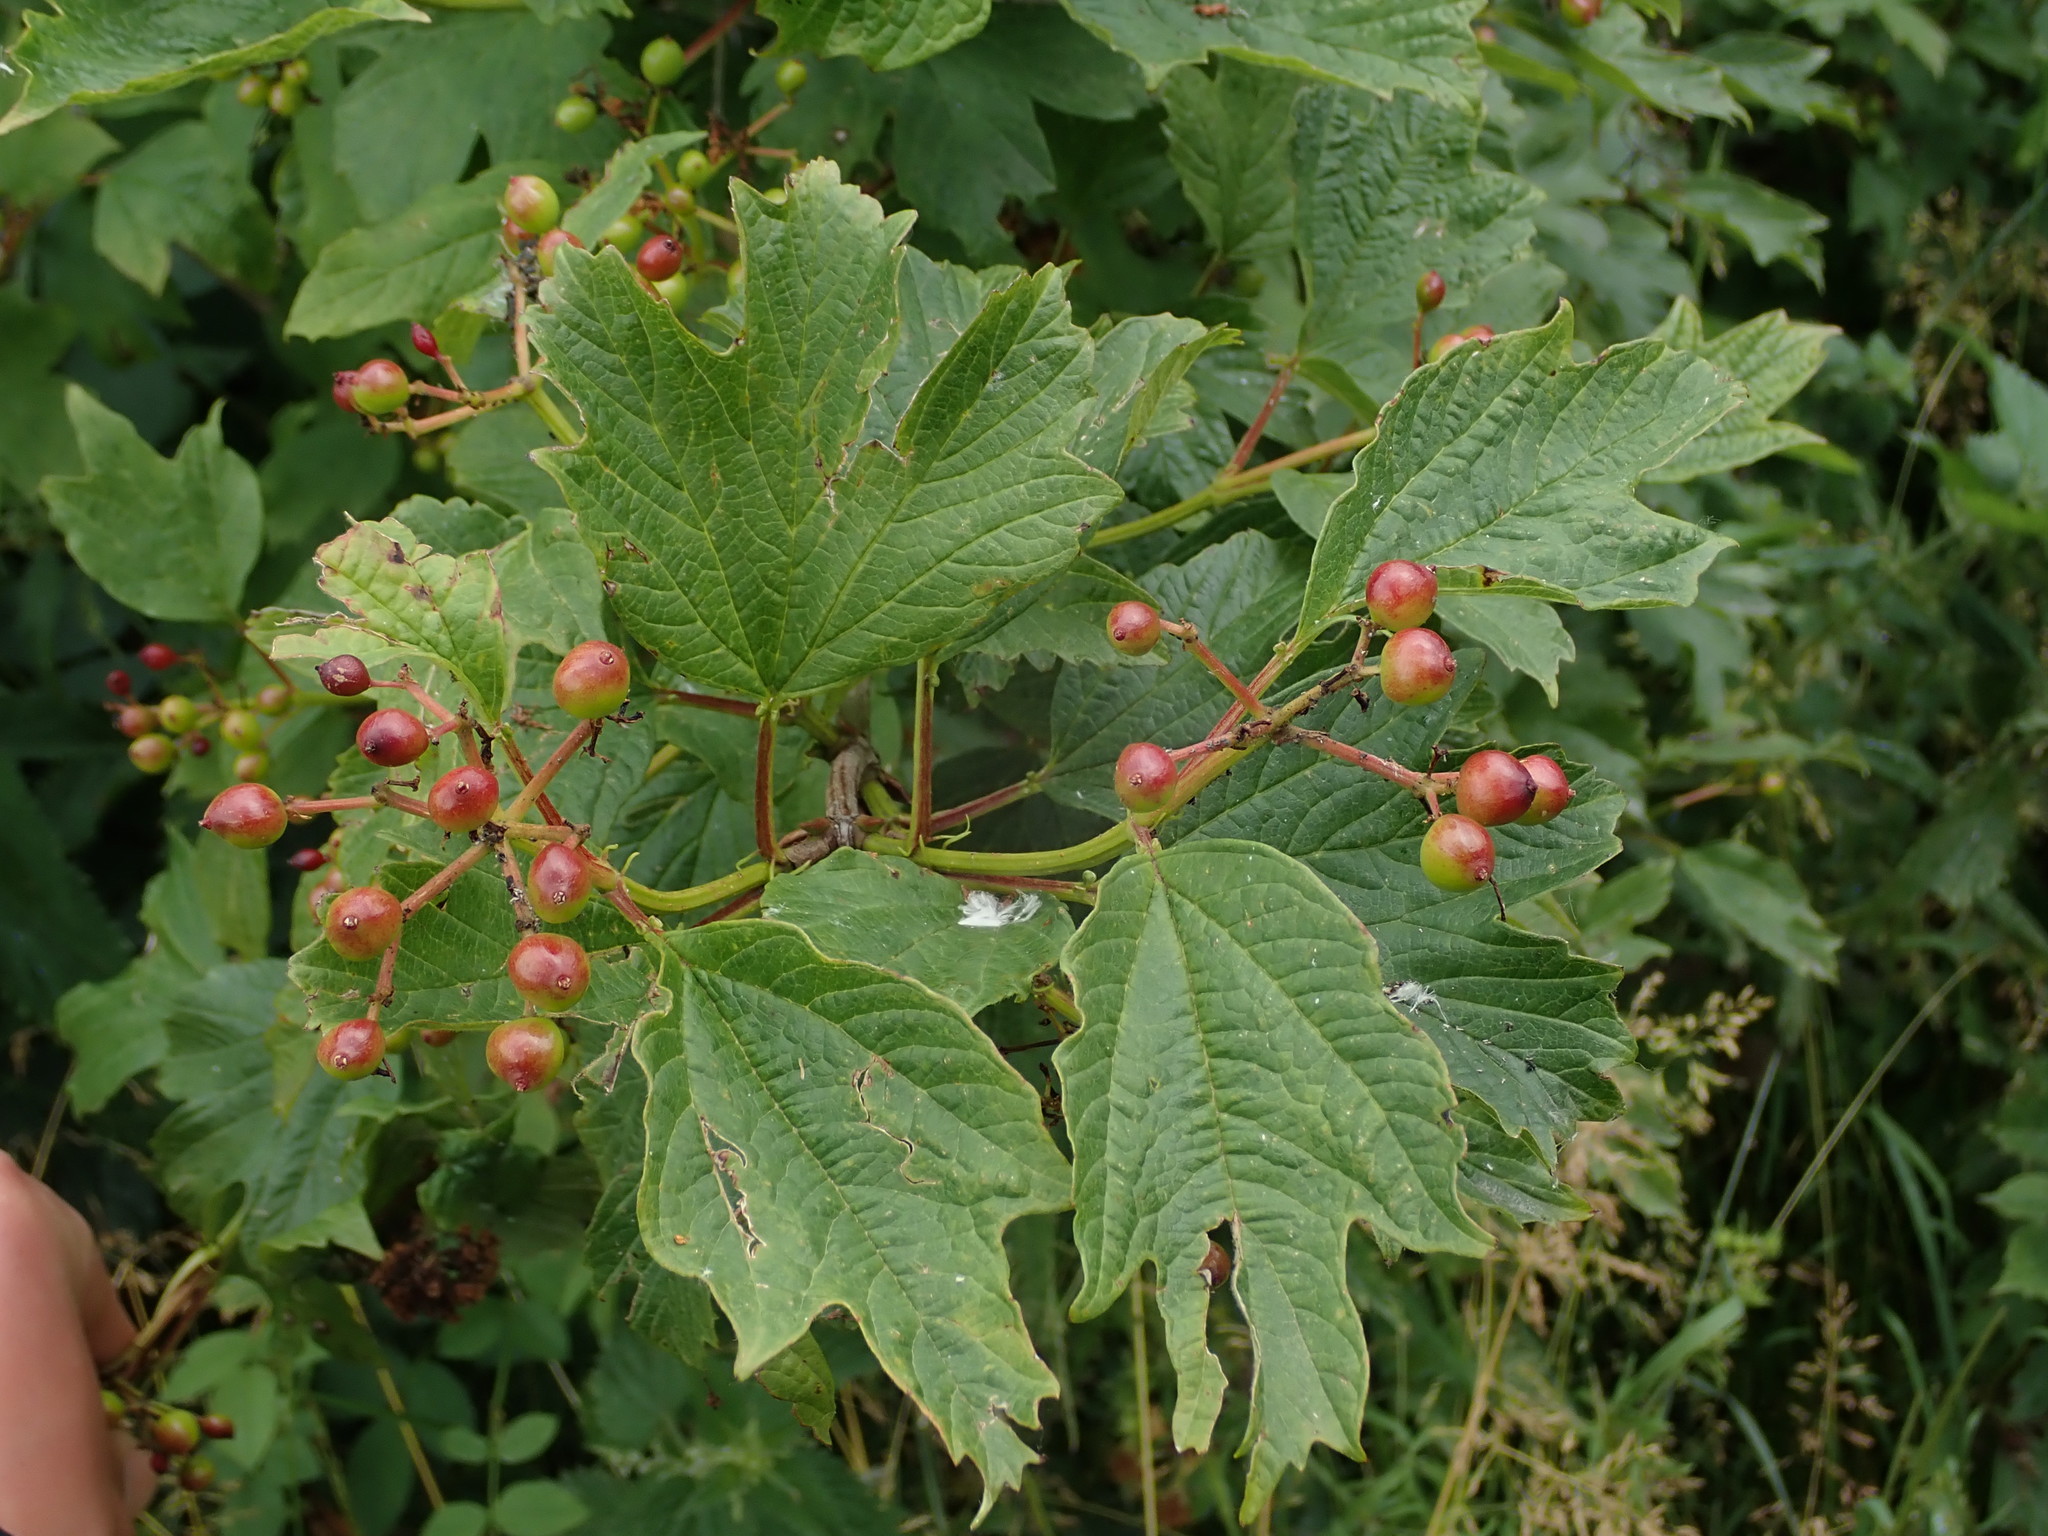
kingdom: Plantae
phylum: Tracheophyta
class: Magnoliopsida
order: Dipsacales
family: Viburnaceae
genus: Viburnum
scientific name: Viburnum opulus
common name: Guelder-rose
